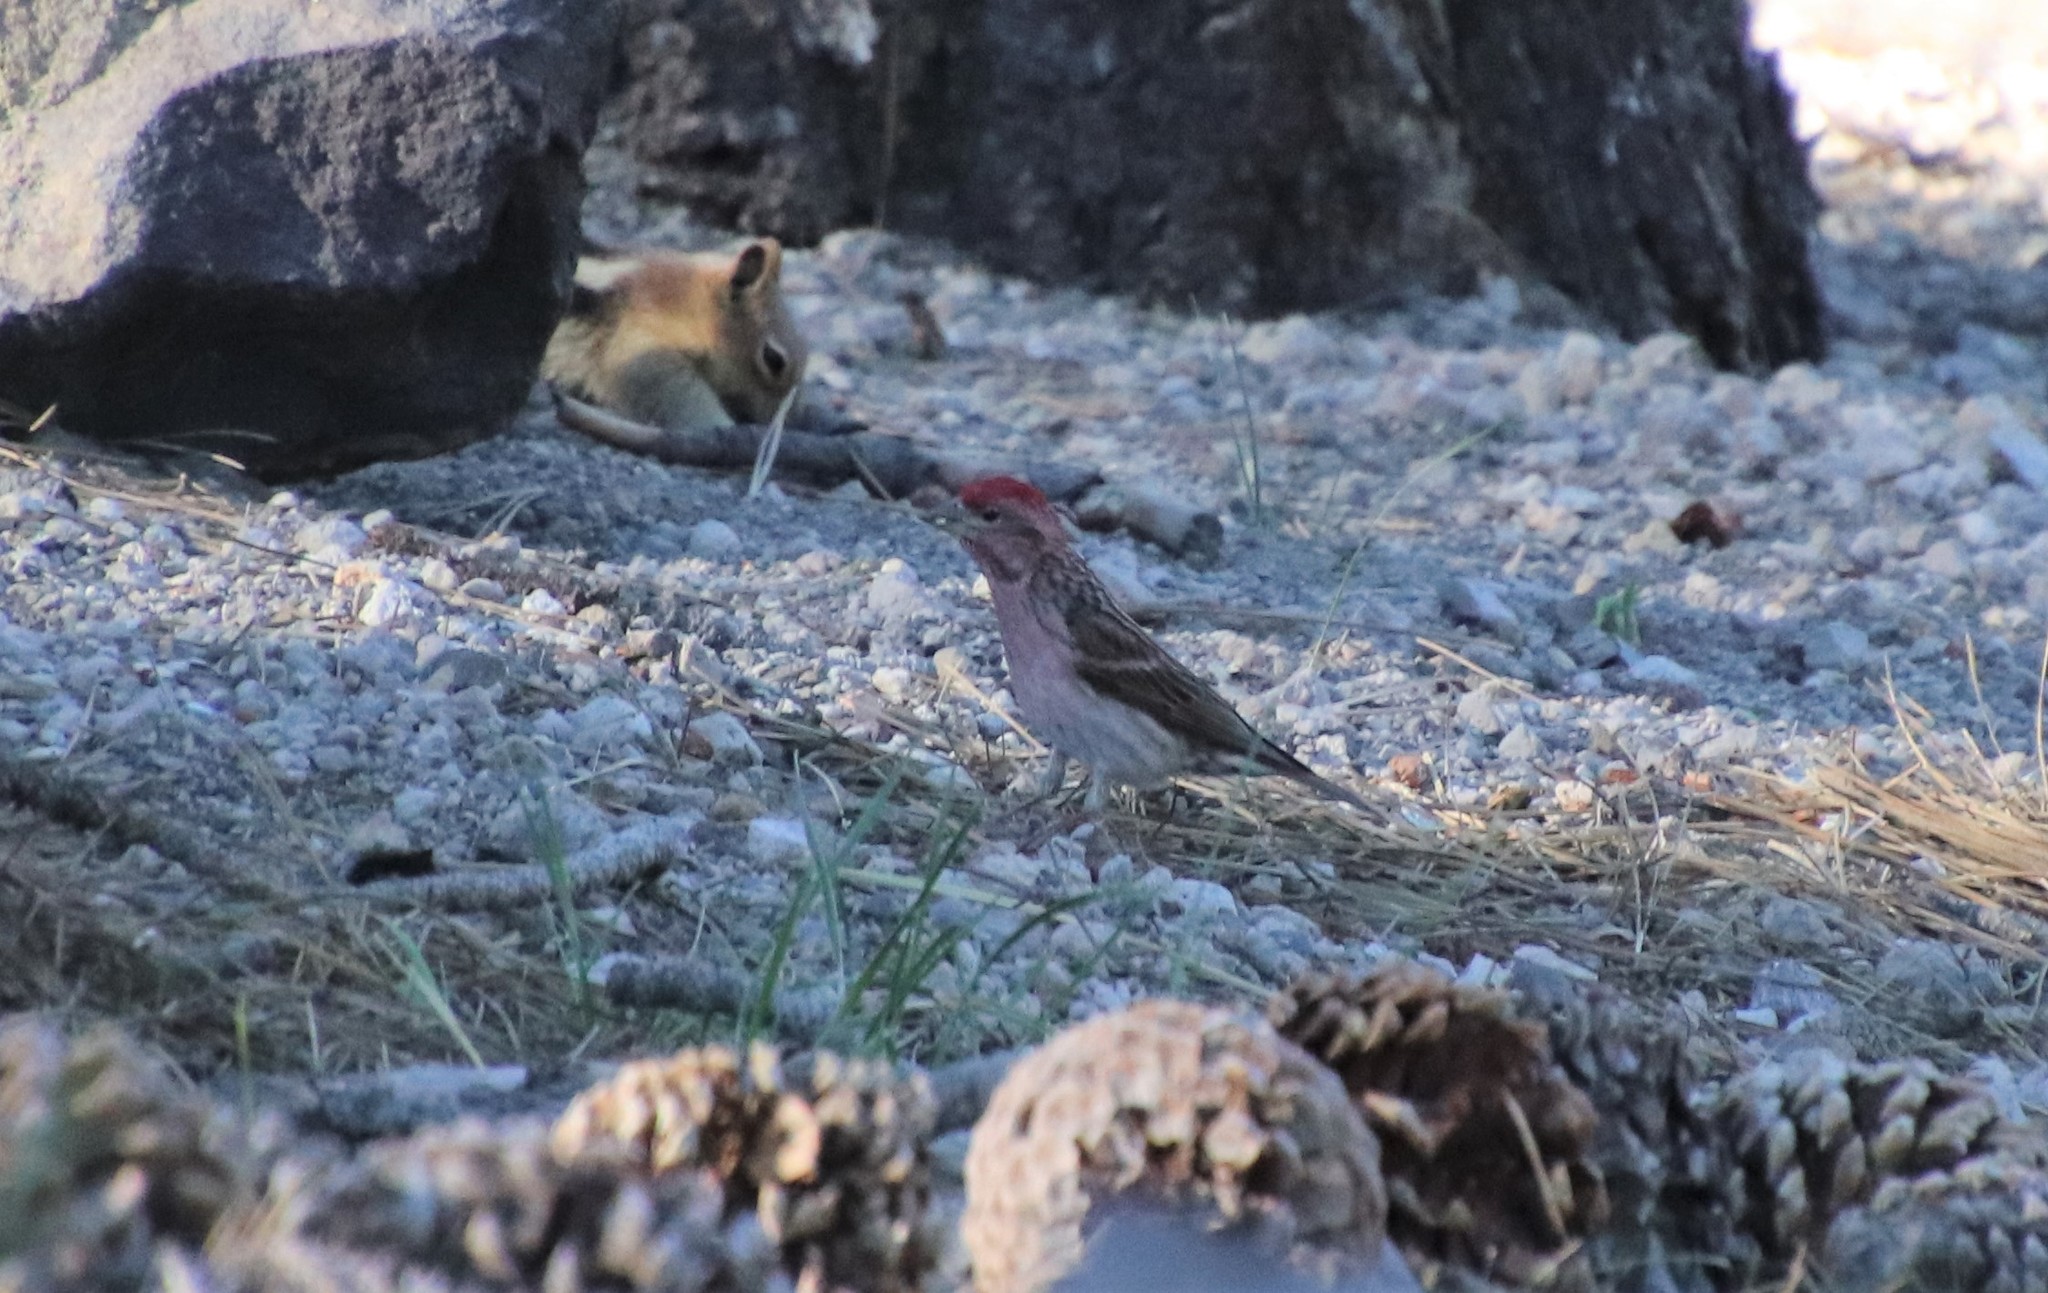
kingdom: Animalia
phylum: Chordata
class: Aves
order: Passeriformes
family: Fringillidae
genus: Haemorhous
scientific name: Haemorhous cassinii
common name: Cassin's finch
